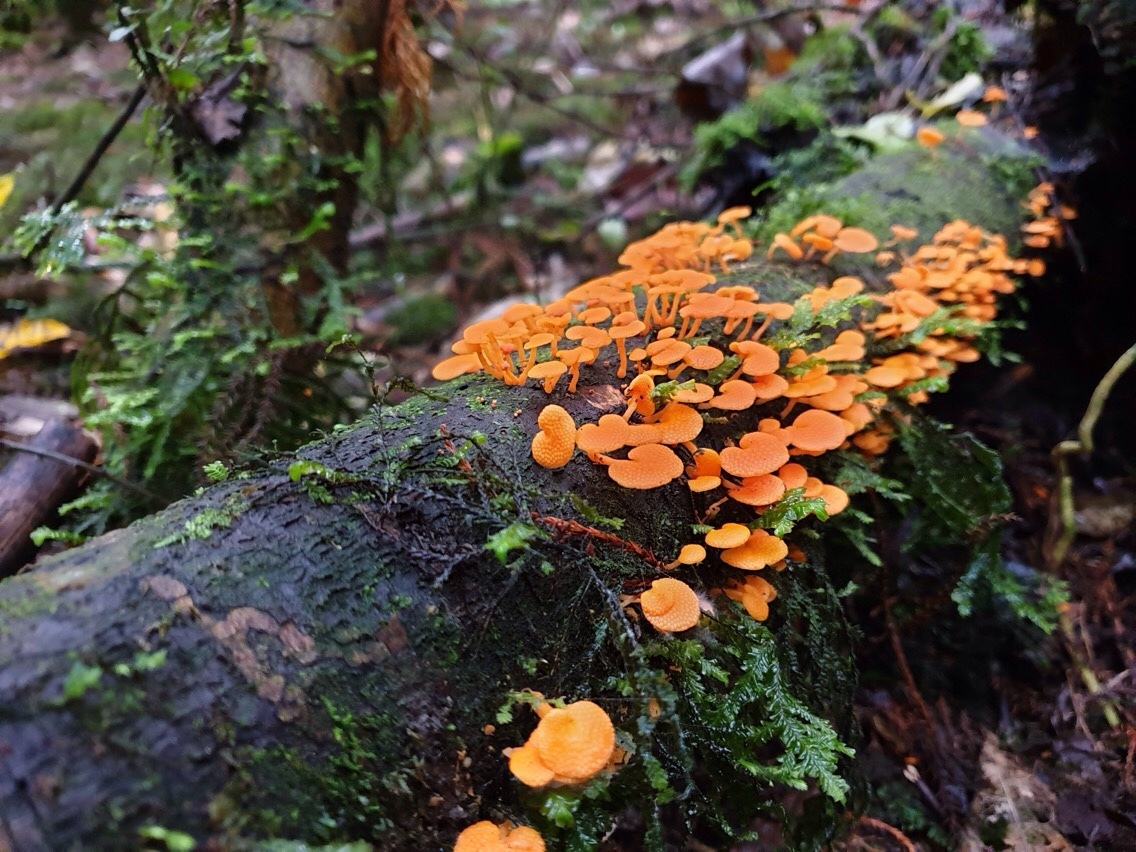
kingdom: Fungi
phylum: Basidiomycota
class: Agaricomycetes
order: Agaricales
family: Mycenaceae
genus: Favolaschia
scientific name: Favolaschia claudopus
